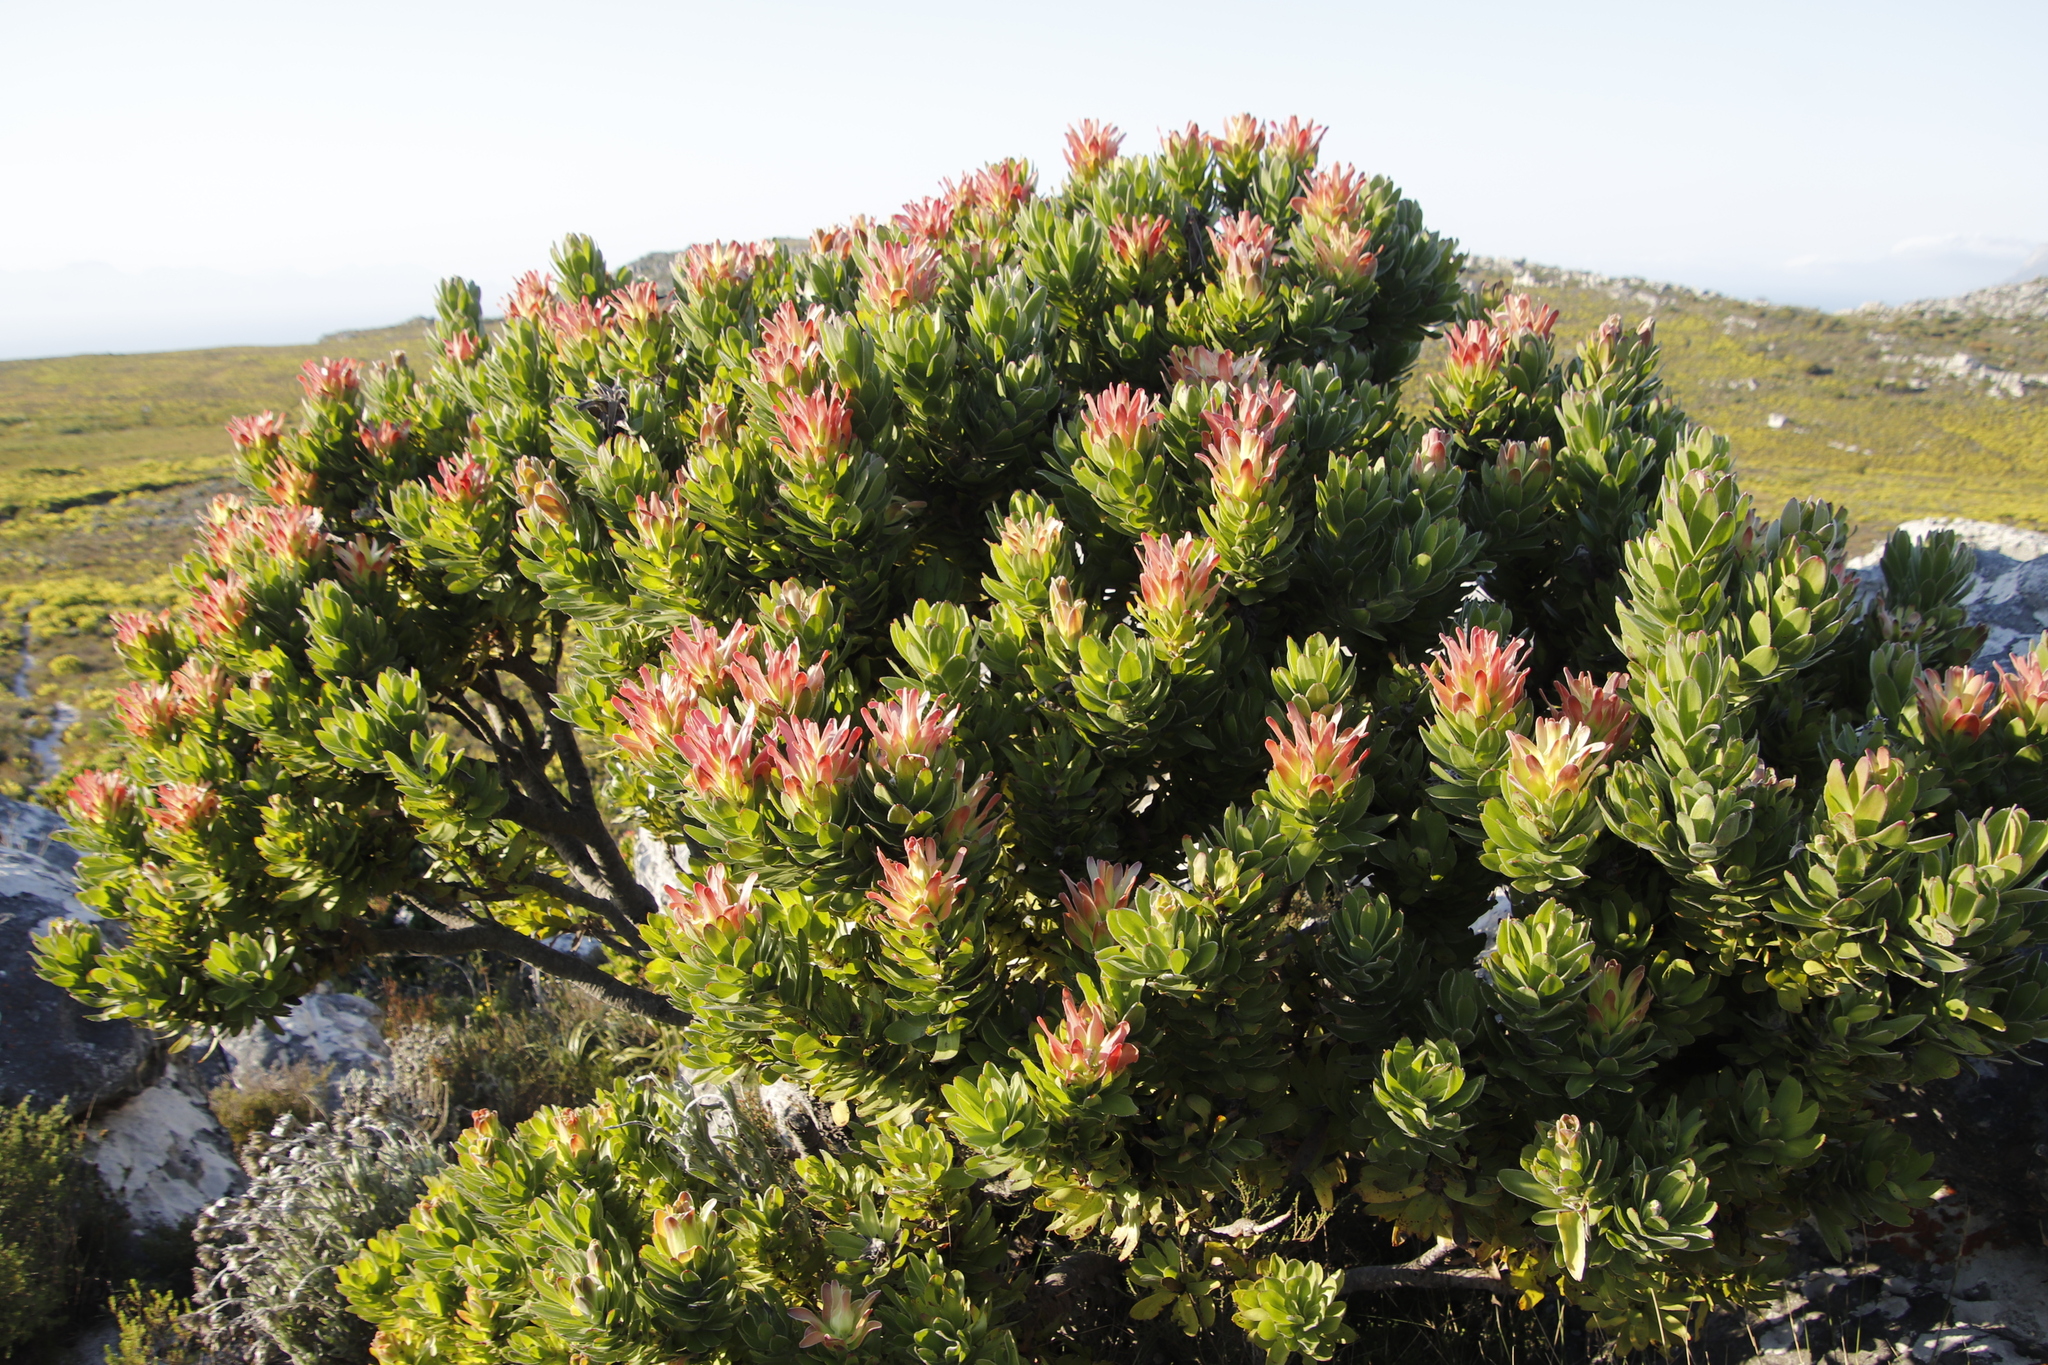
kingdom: Plantae
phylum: Tracheophyta
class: Magnoliopsida
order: Proteales
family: Proteaceae
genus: Mimetes
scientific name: Mimetes fimbriifolius
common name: Fringed bottlebrush
